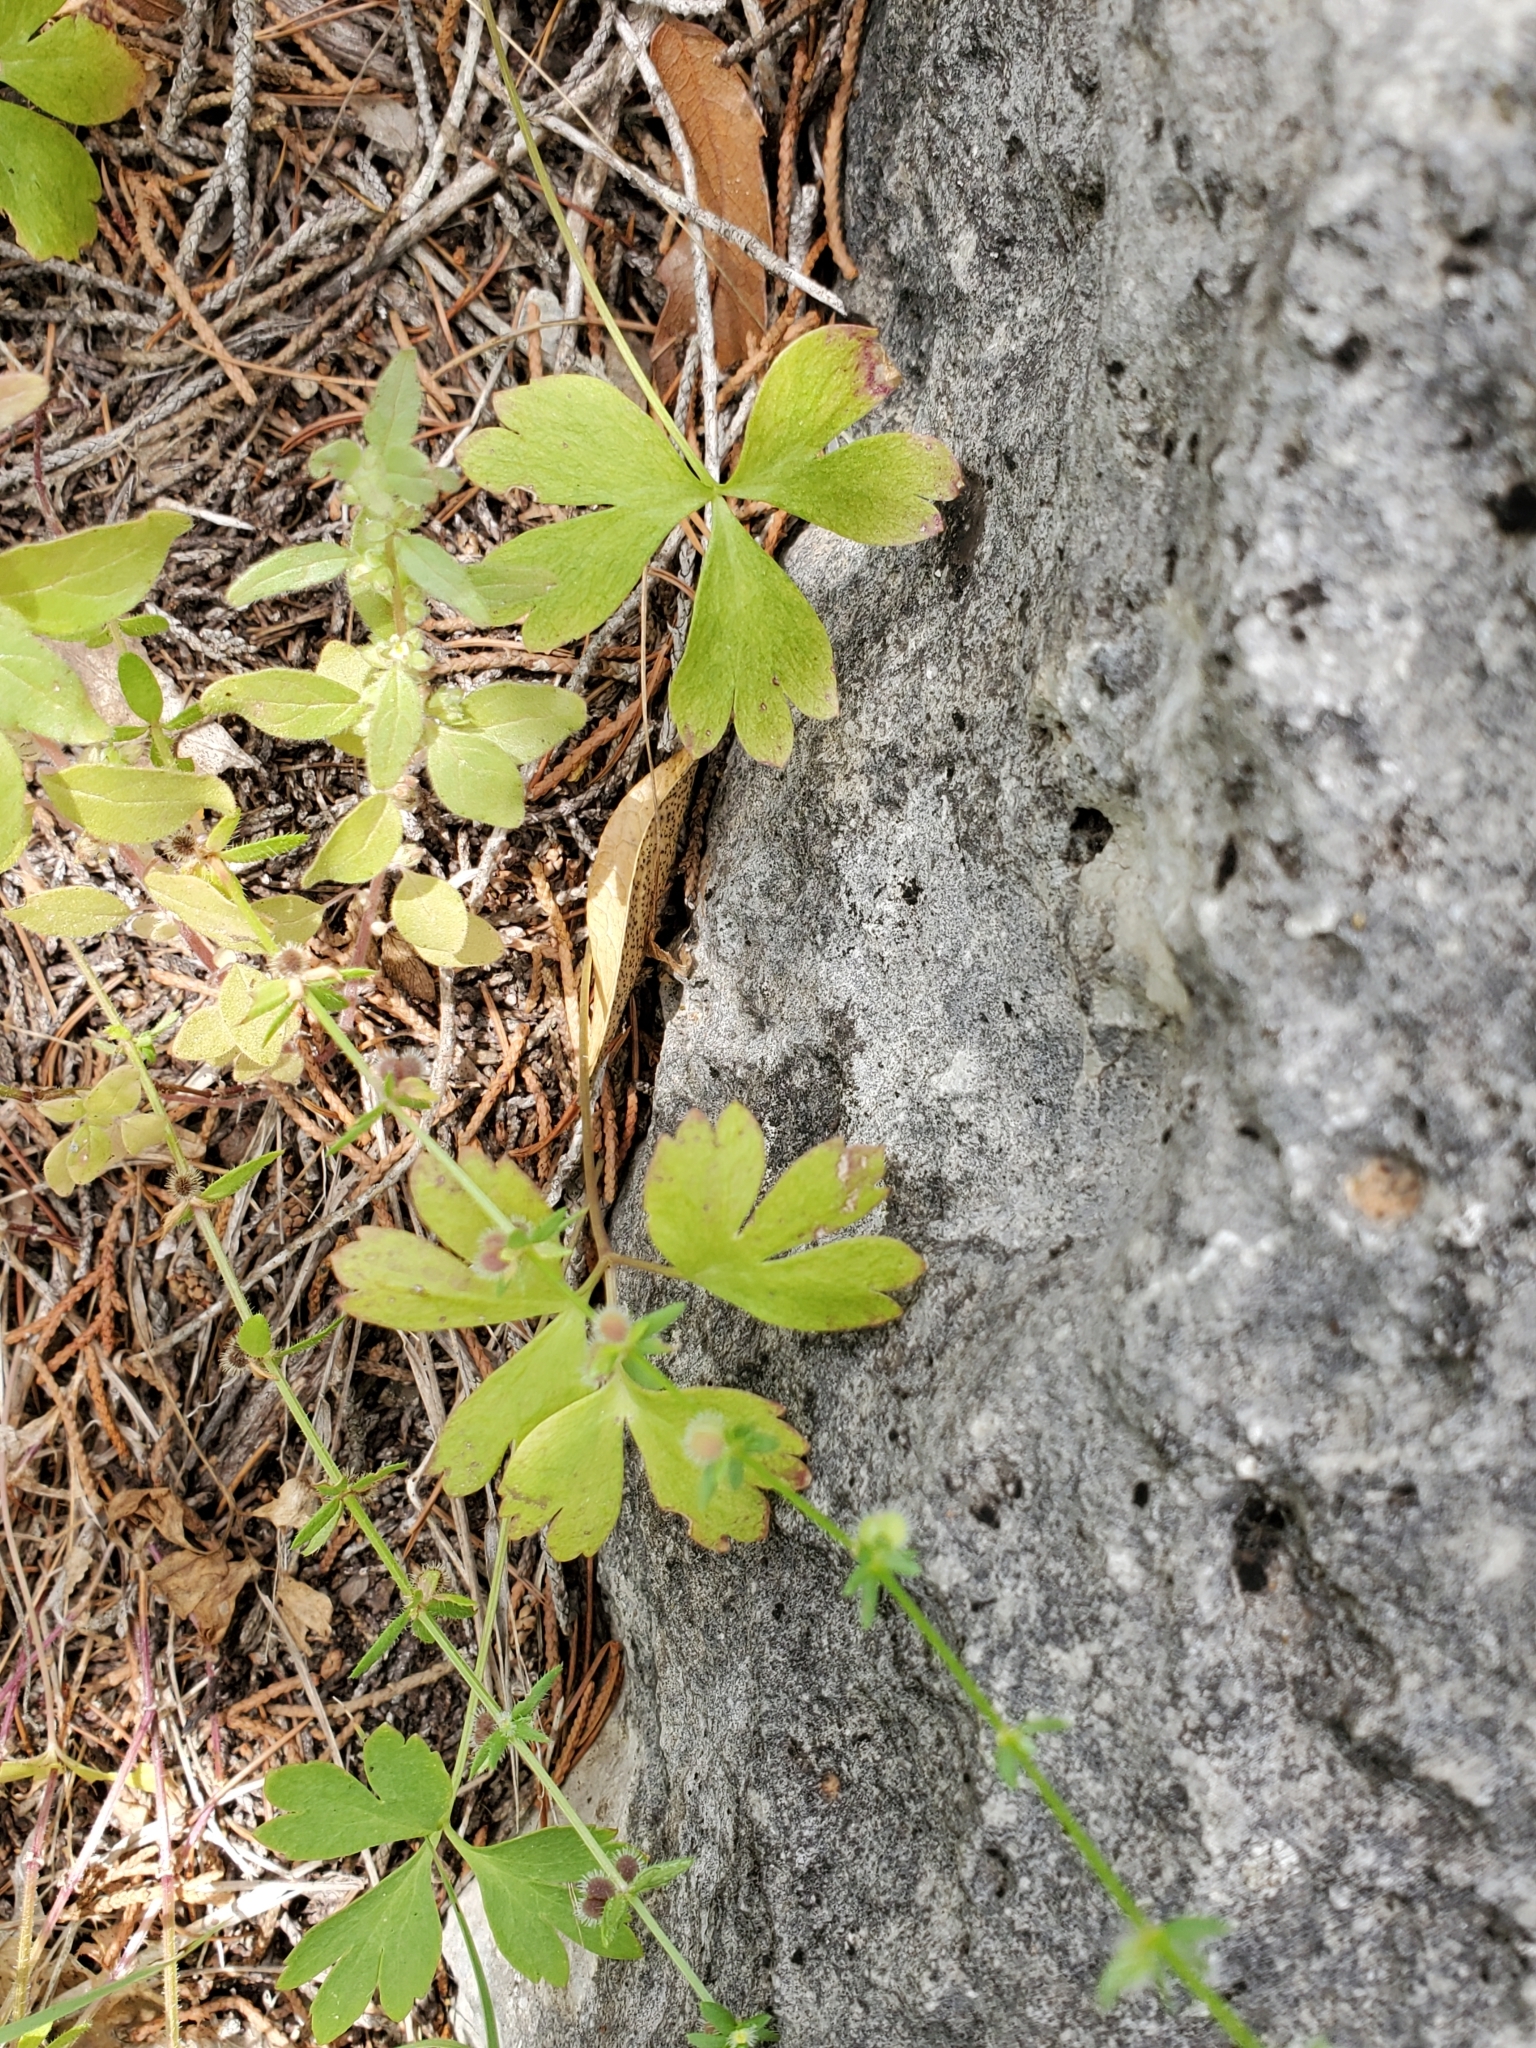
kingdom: Plantae
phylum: Tracheophyta
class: Magnoliopsida
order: Ranunculales
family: Ranunculaceae
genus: Anemone
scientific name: Anemone edwardsiana
